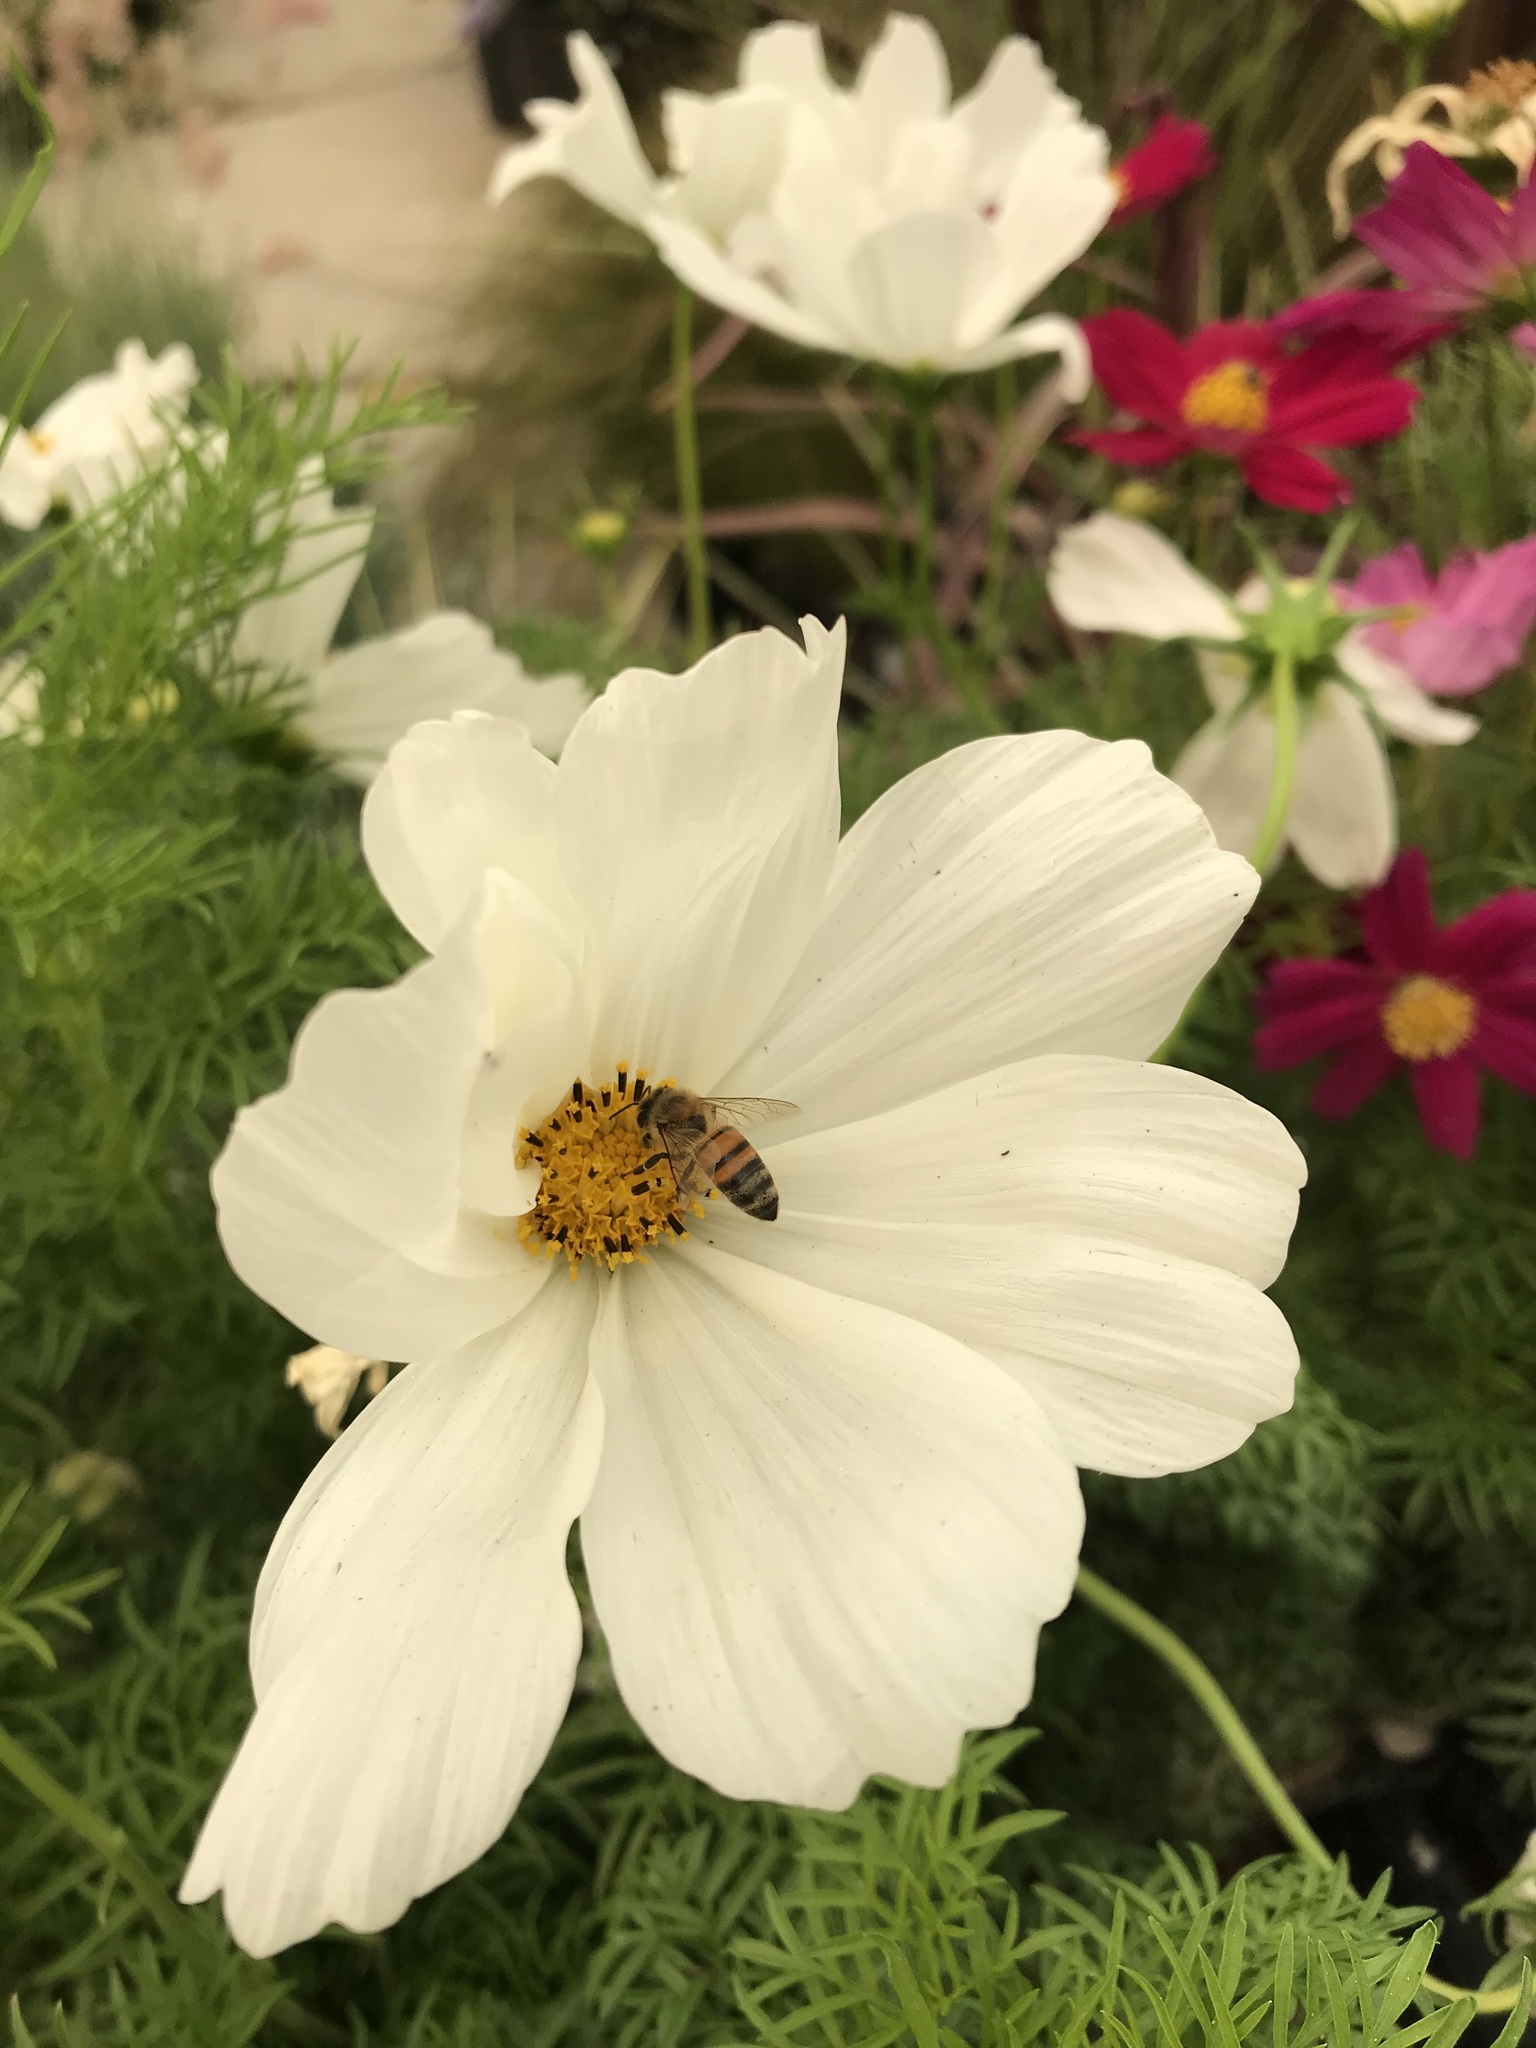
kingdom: Animalia
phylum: Arthropoda
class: Insecta
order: Hymenoptera
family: Apidae
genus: Apis
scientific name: Apis mellifera
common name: Honey bee
